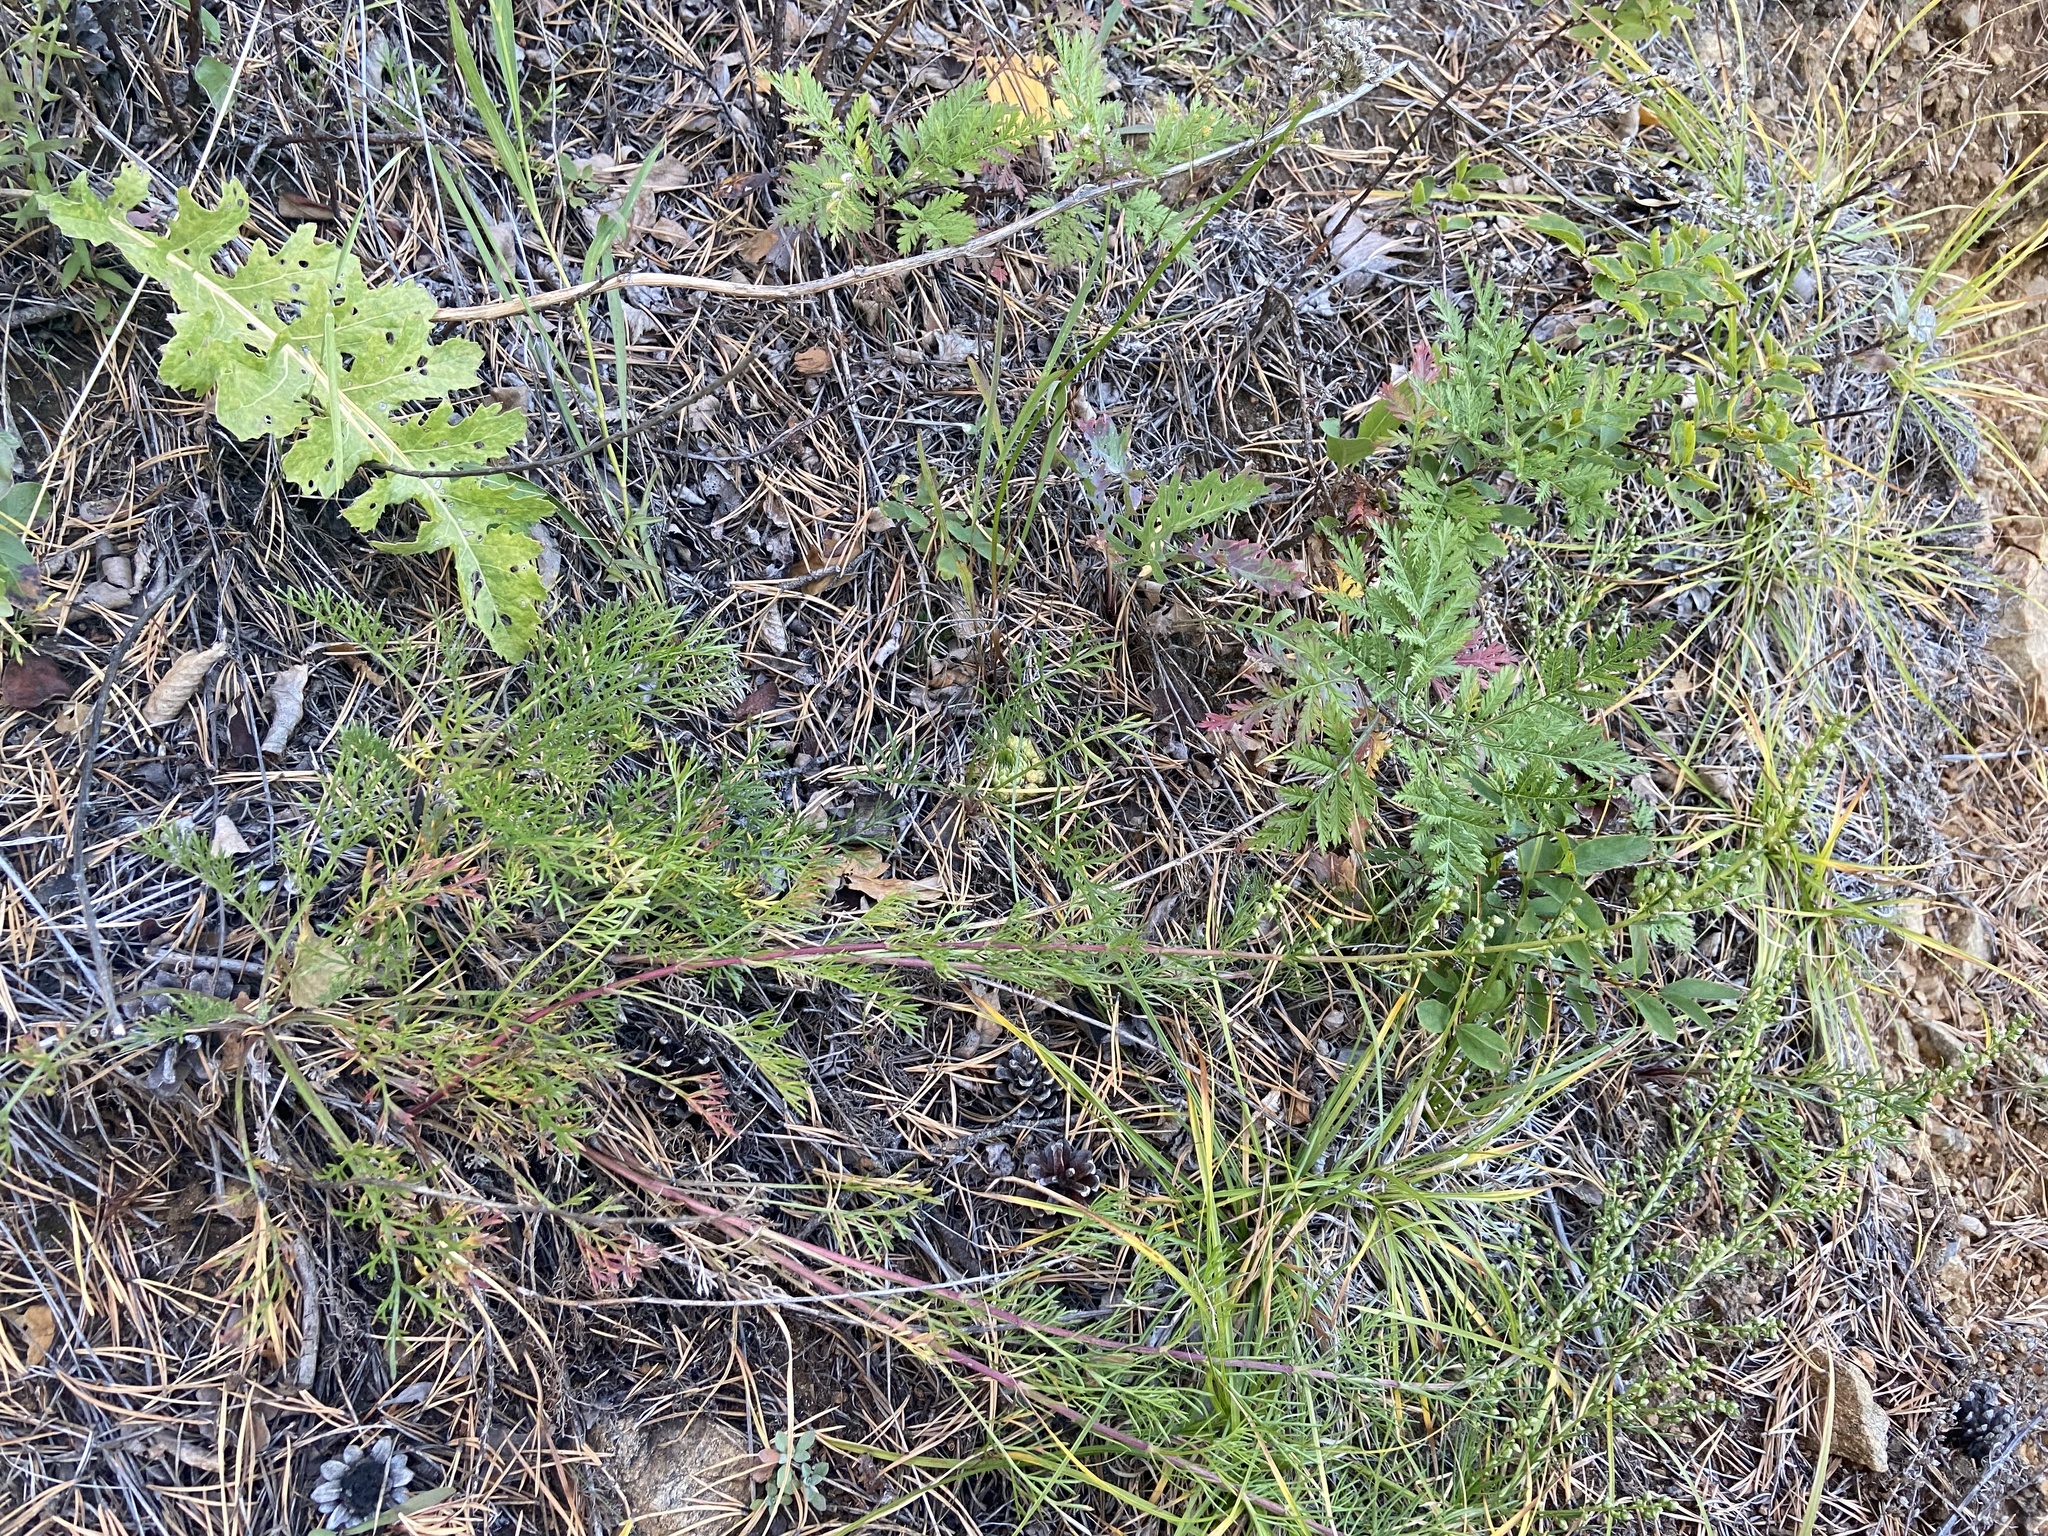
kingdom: Plantae
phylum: Tracheophyta
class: Magnoliopsida
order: Asterales
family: Asteraceae
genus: Artemisia
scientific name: Artemisia pubescens
